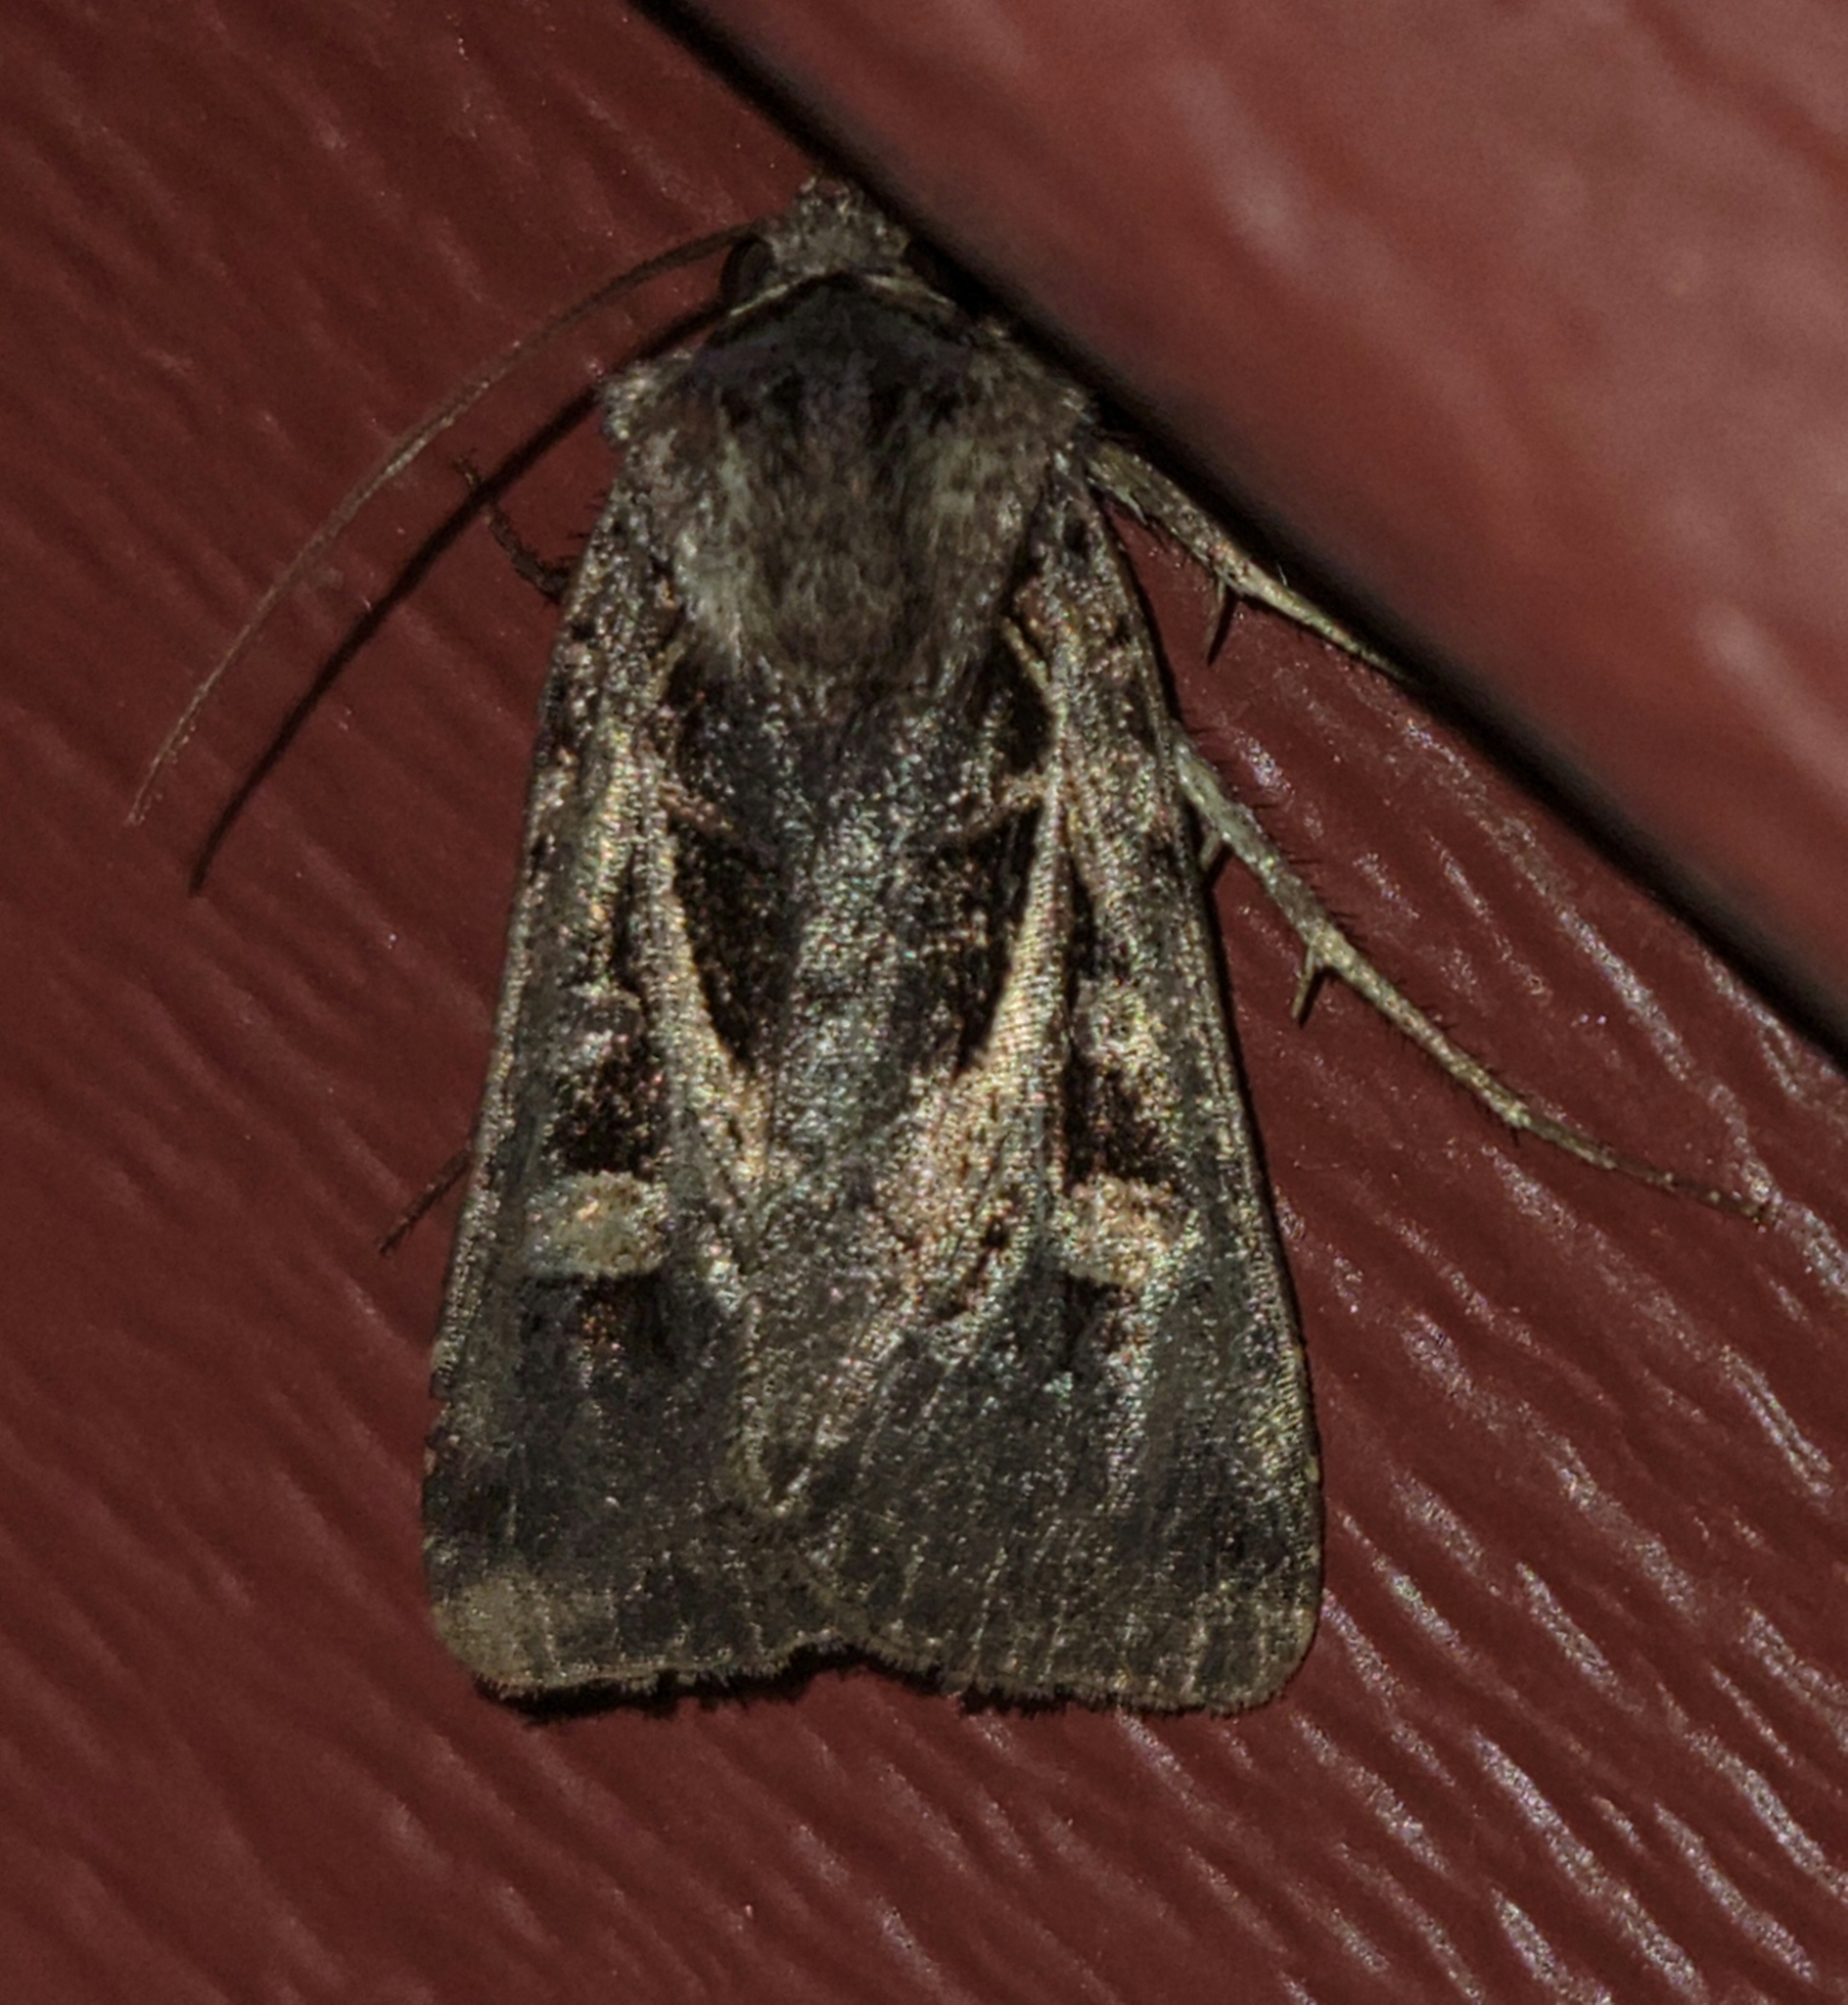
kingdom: Animalia
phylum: Arthropoda
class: Insecta
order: Lepidoptera
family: Noctuidae
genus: Feltia
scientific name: Feltia herilis
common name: Master's dart
